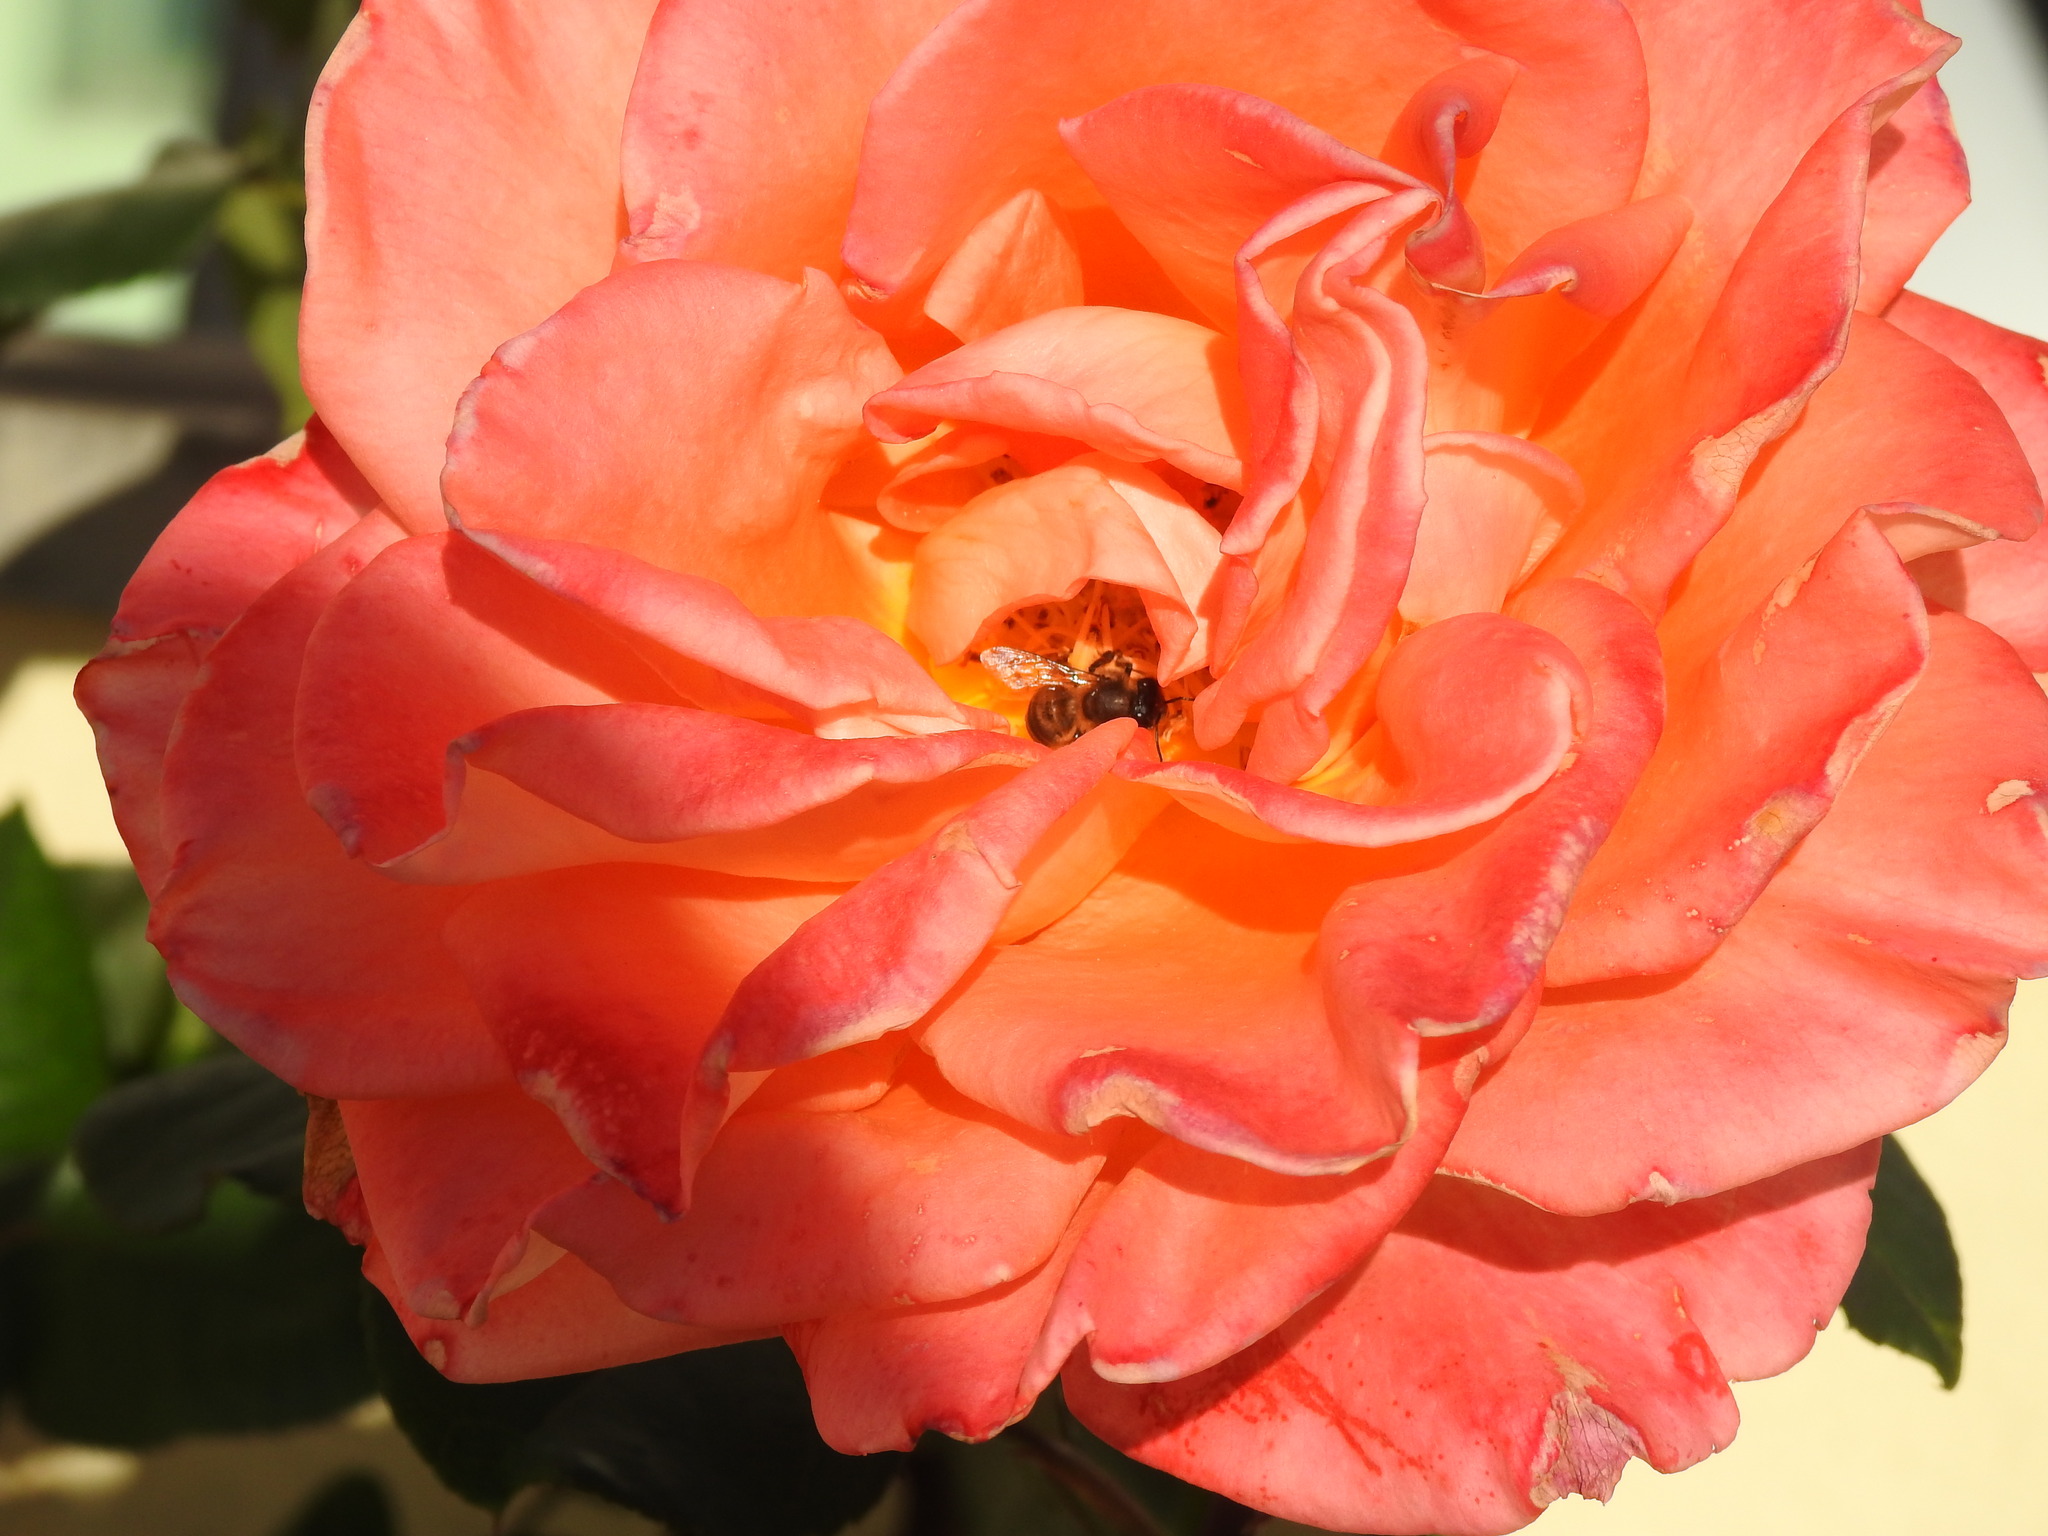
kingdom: Animalia
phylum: Arthropoda
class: Insecta
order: Hymenoptera
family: Apidae
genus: Apis
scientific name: Apis mellifera
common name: Honey bee
